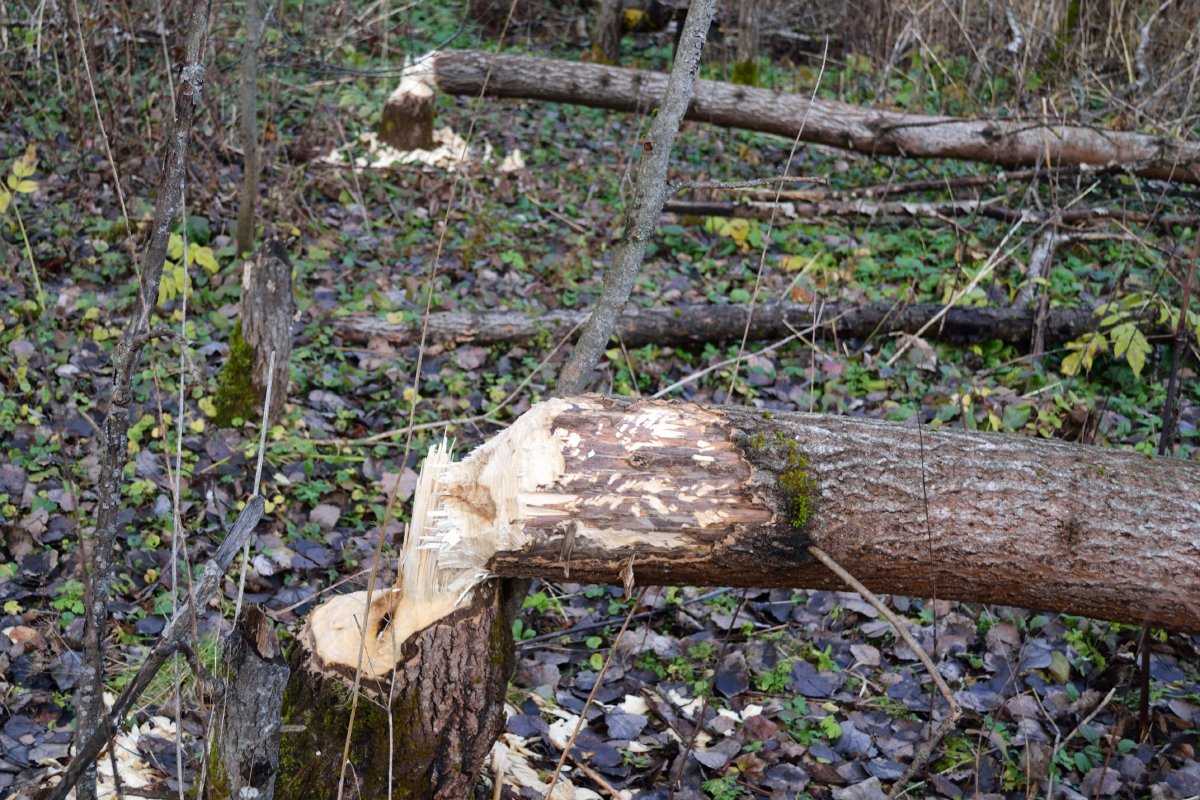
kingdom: Animalia
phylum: Chordata
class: Mammalia
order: Rodentia
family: Castoridae
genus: Castor
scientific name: Castor fiber
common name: Eurasian beaver
